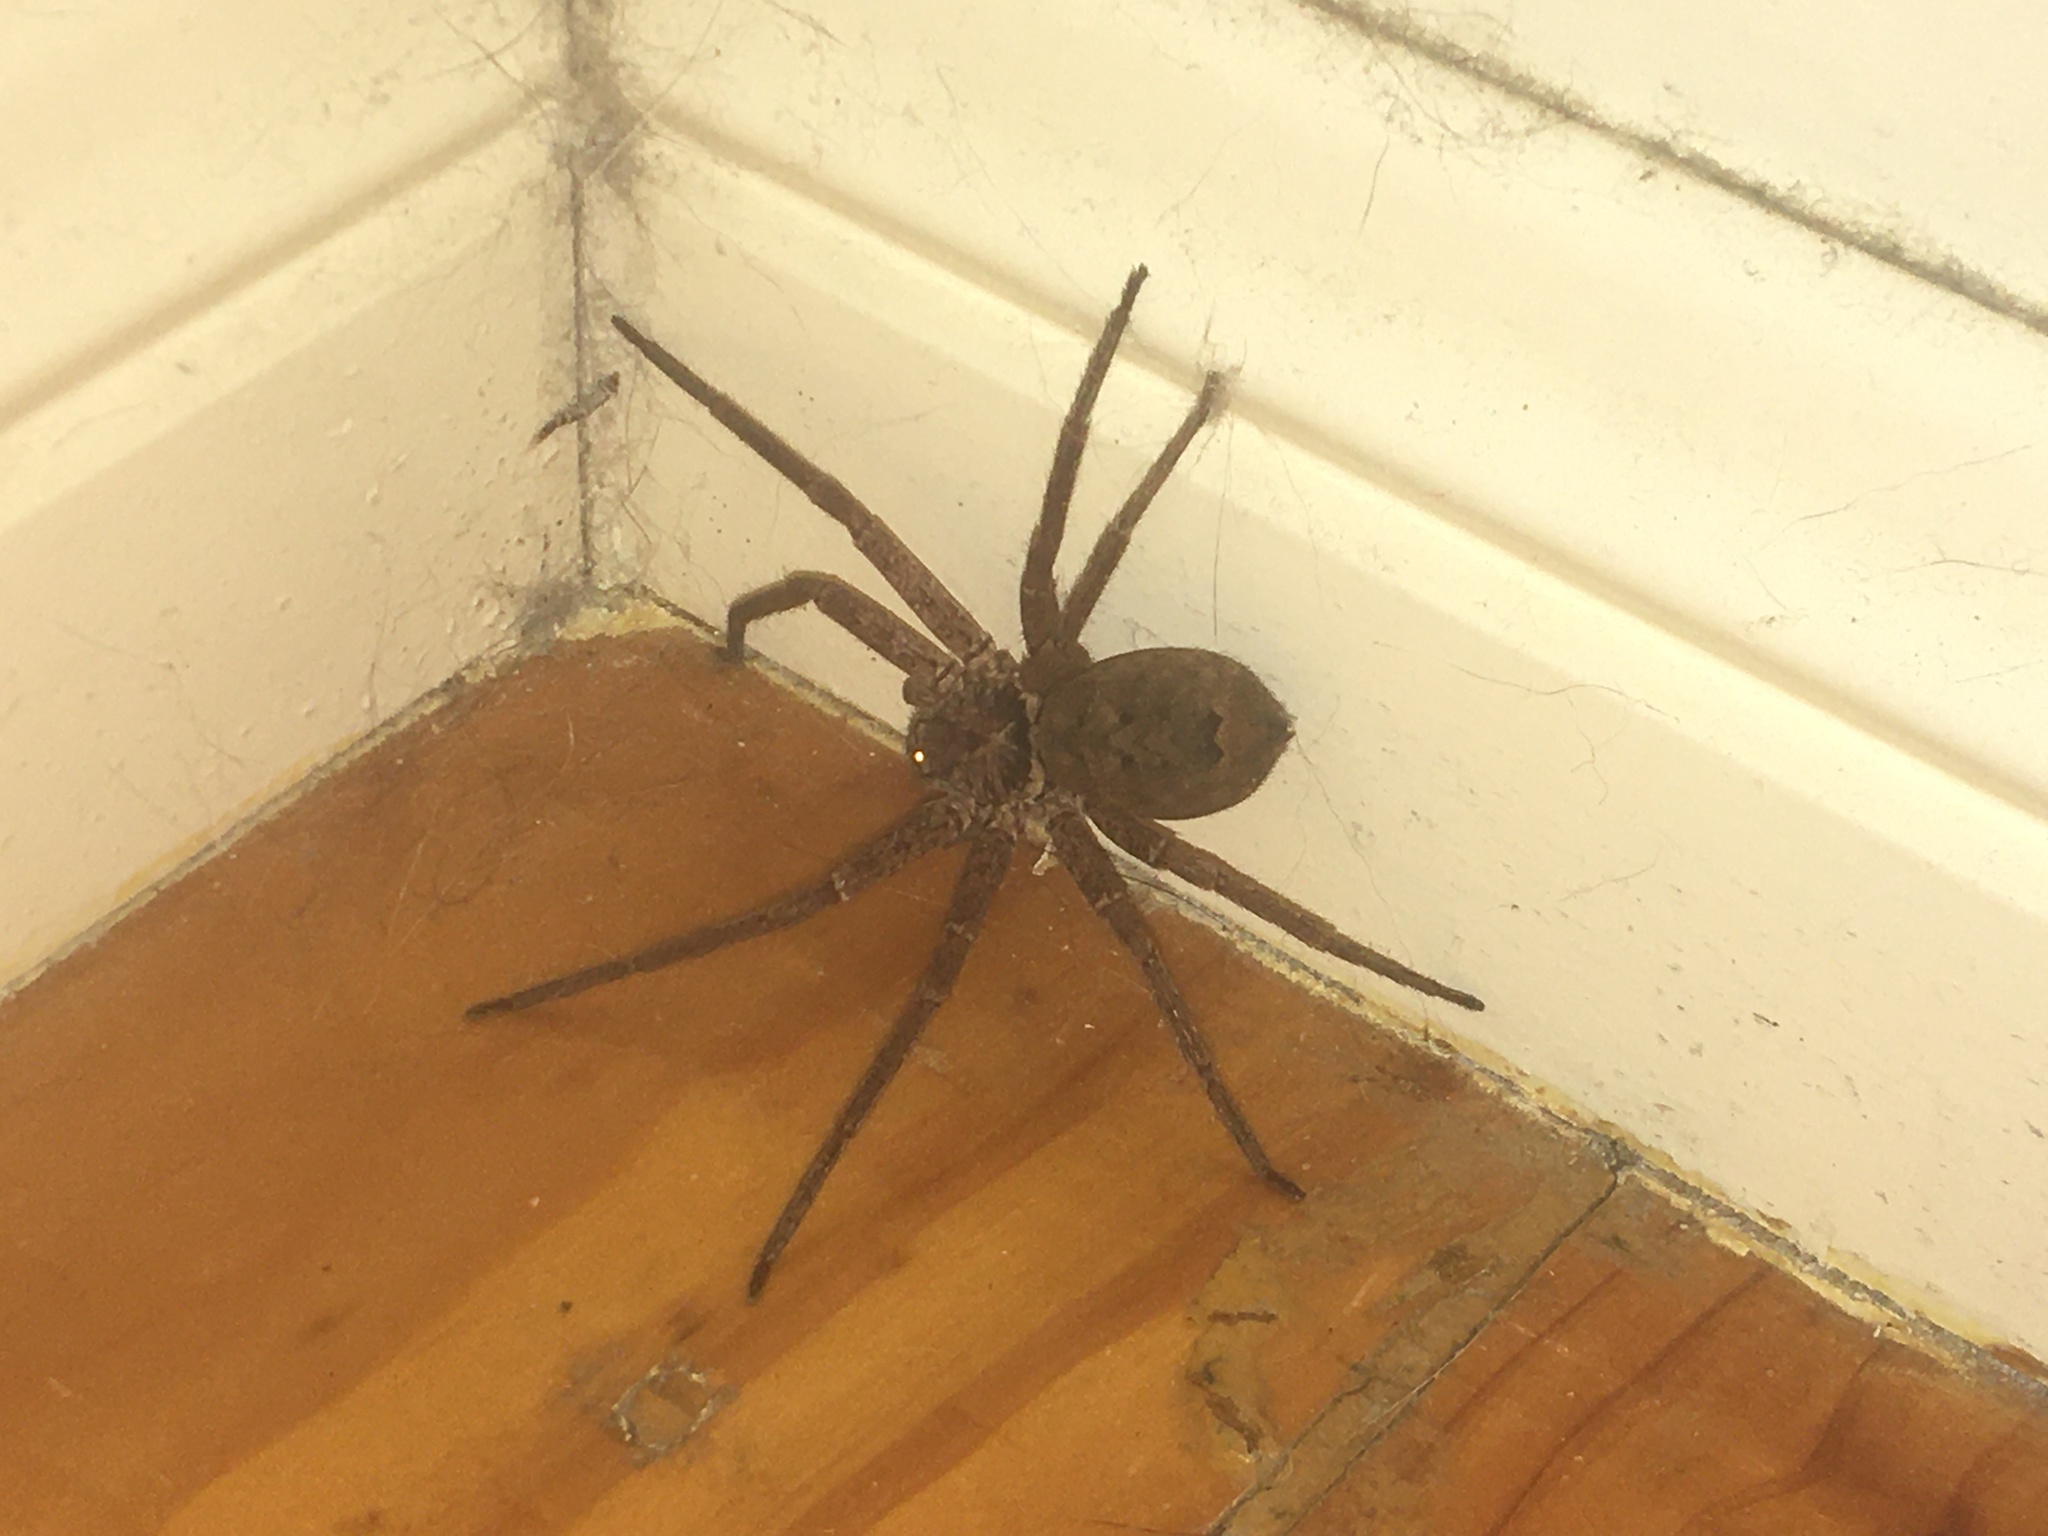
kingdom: Animalia
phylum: Arthropoda
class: Arachnida
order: Araneae
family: Sparassidae
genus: Heteropoda
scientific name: Heteropoda jugulans
